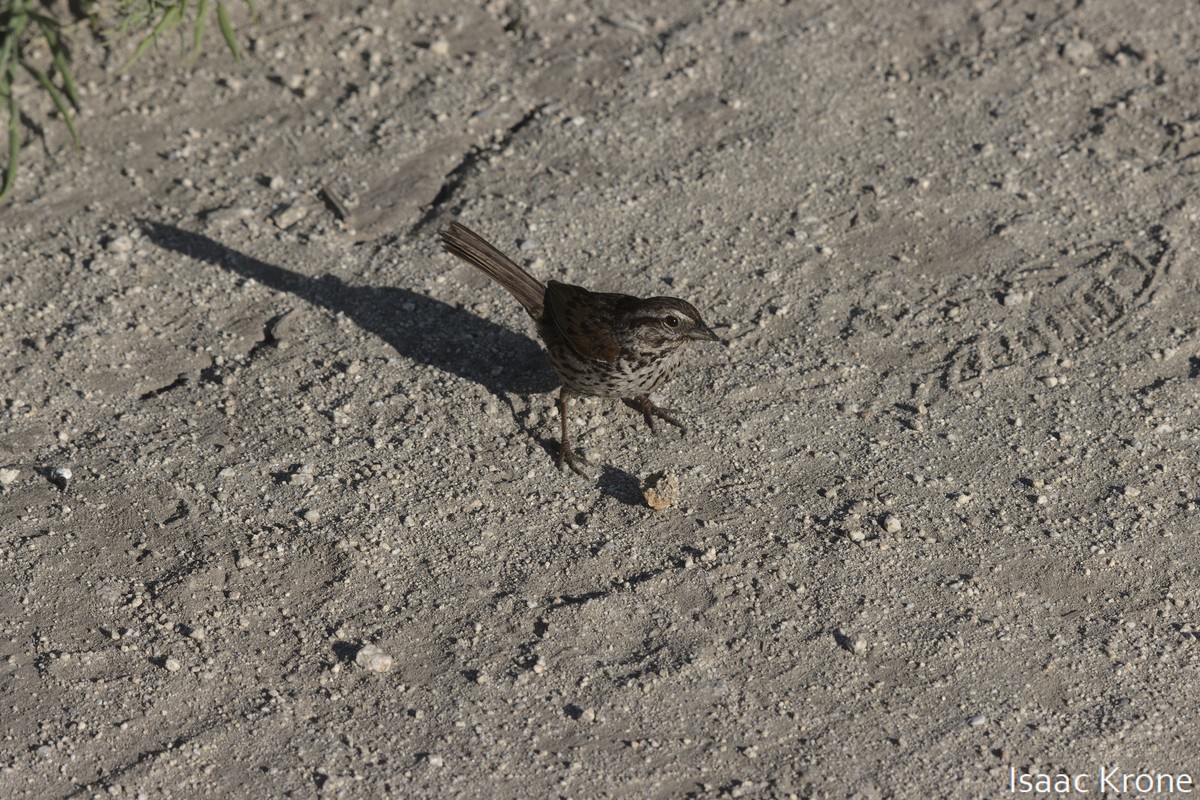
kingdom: Animalia
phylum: Chordata
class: Aves
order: Passeriformes
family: Passerellidae
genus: Melospiza
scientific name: Melospiza melodia
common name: Song sparrow
